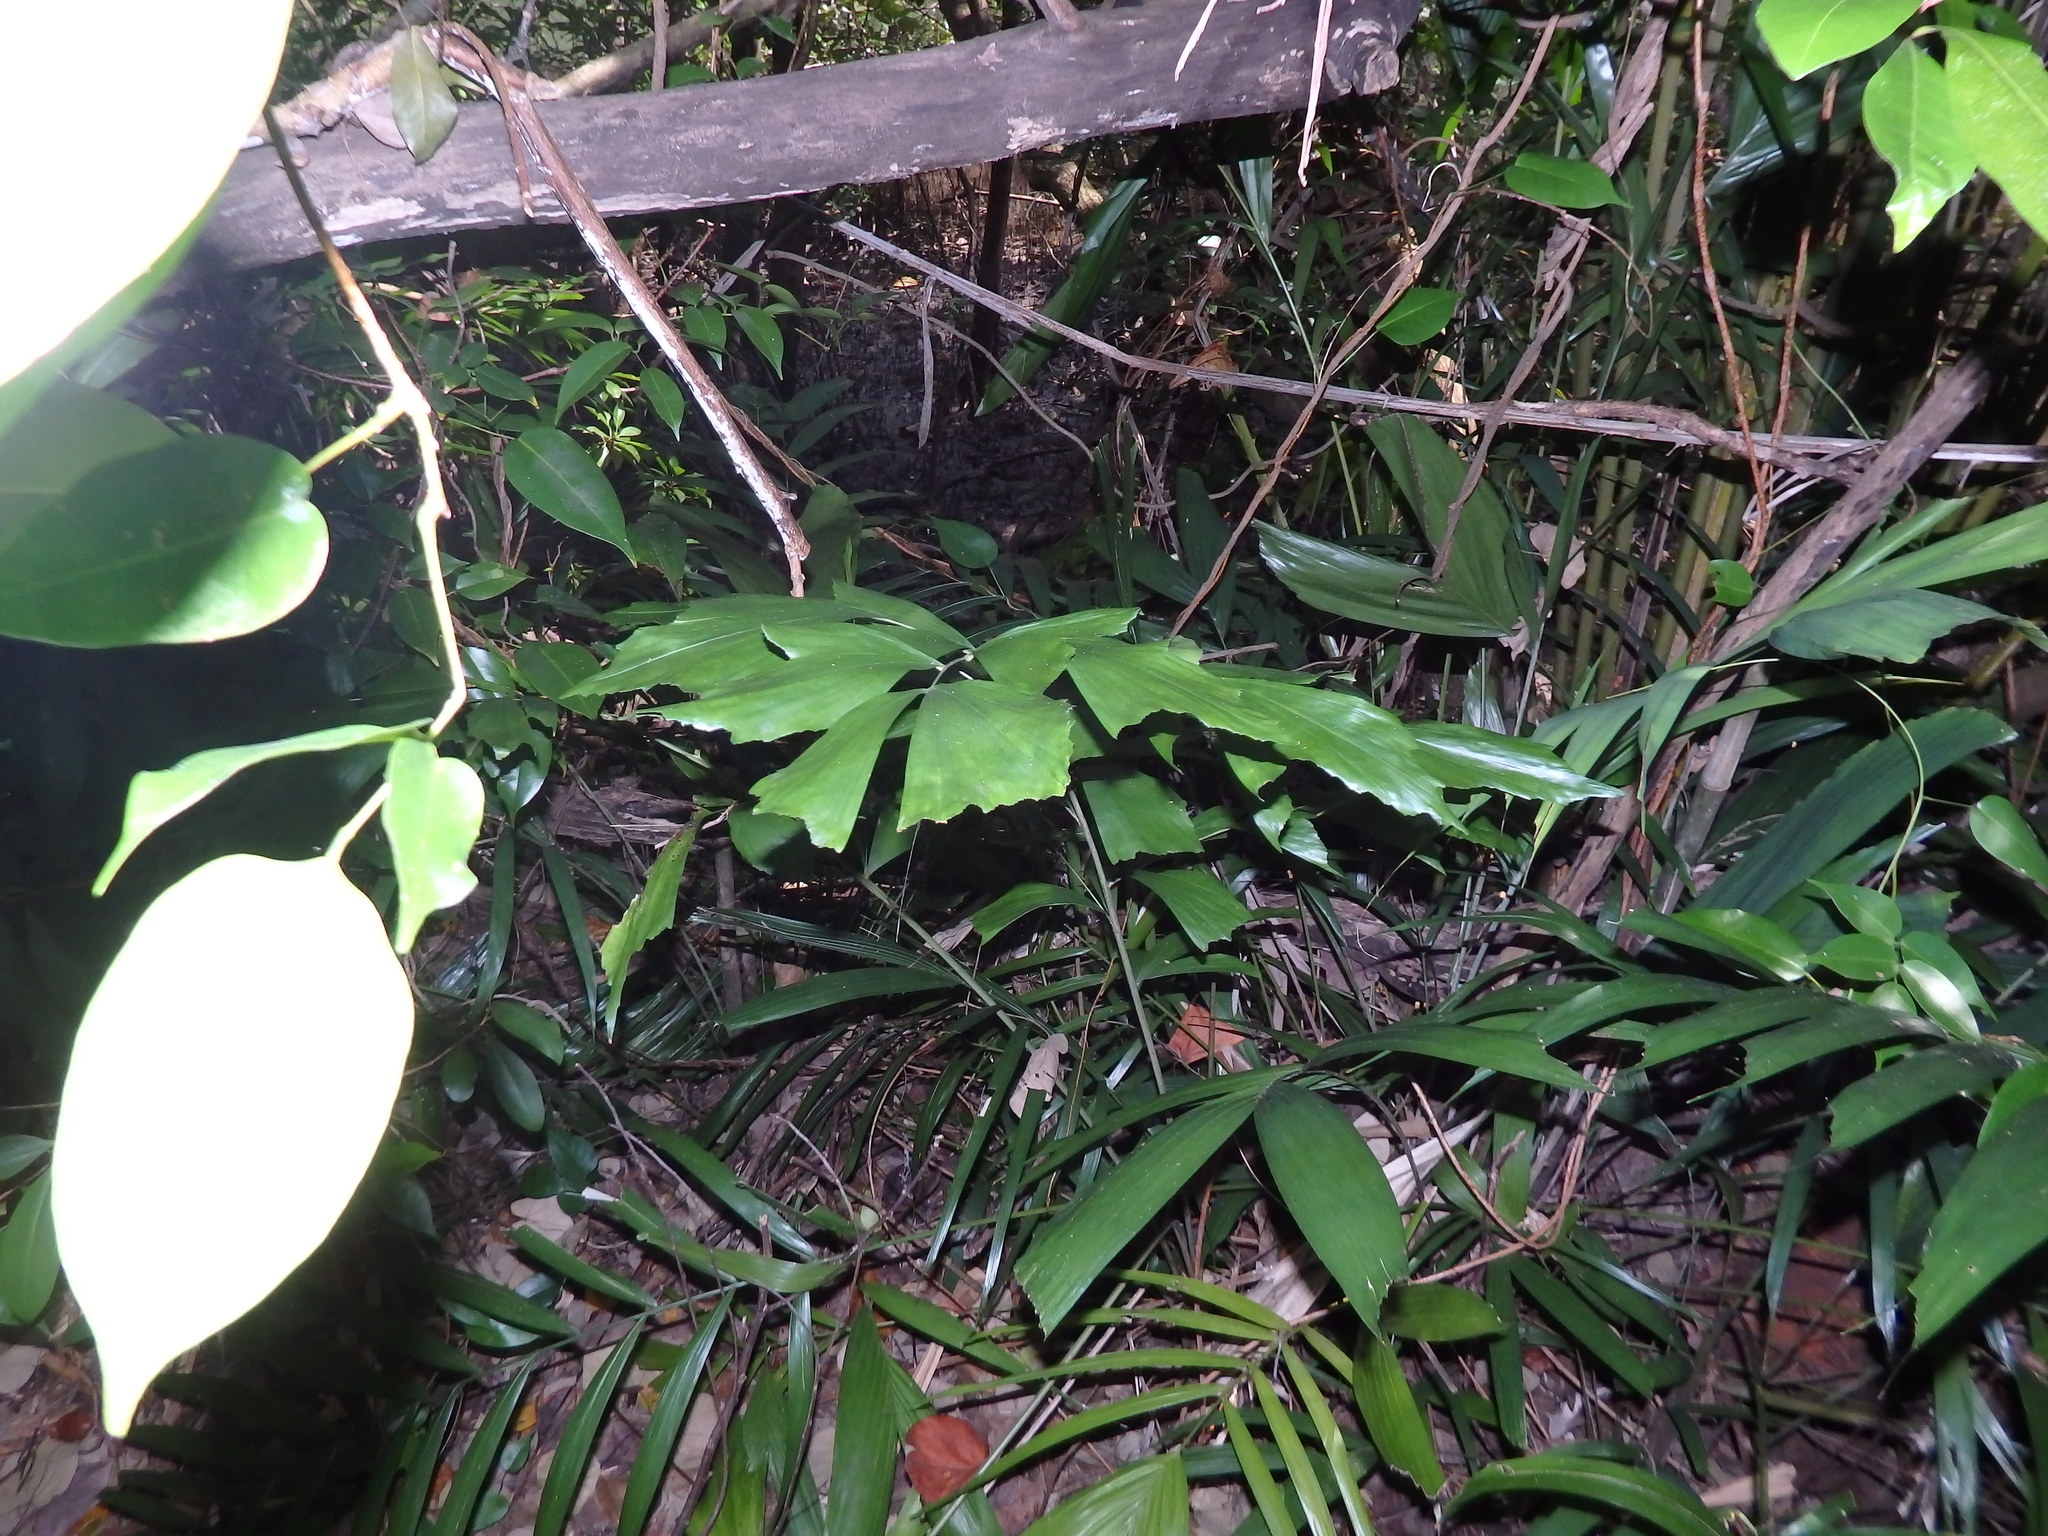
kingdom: Plantae
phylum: Tracheophyta
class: Liliopsida
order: Arecales
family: Arecaceae
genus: Caryota
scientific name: Caryota mitis
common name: Burmese fishtail palm
